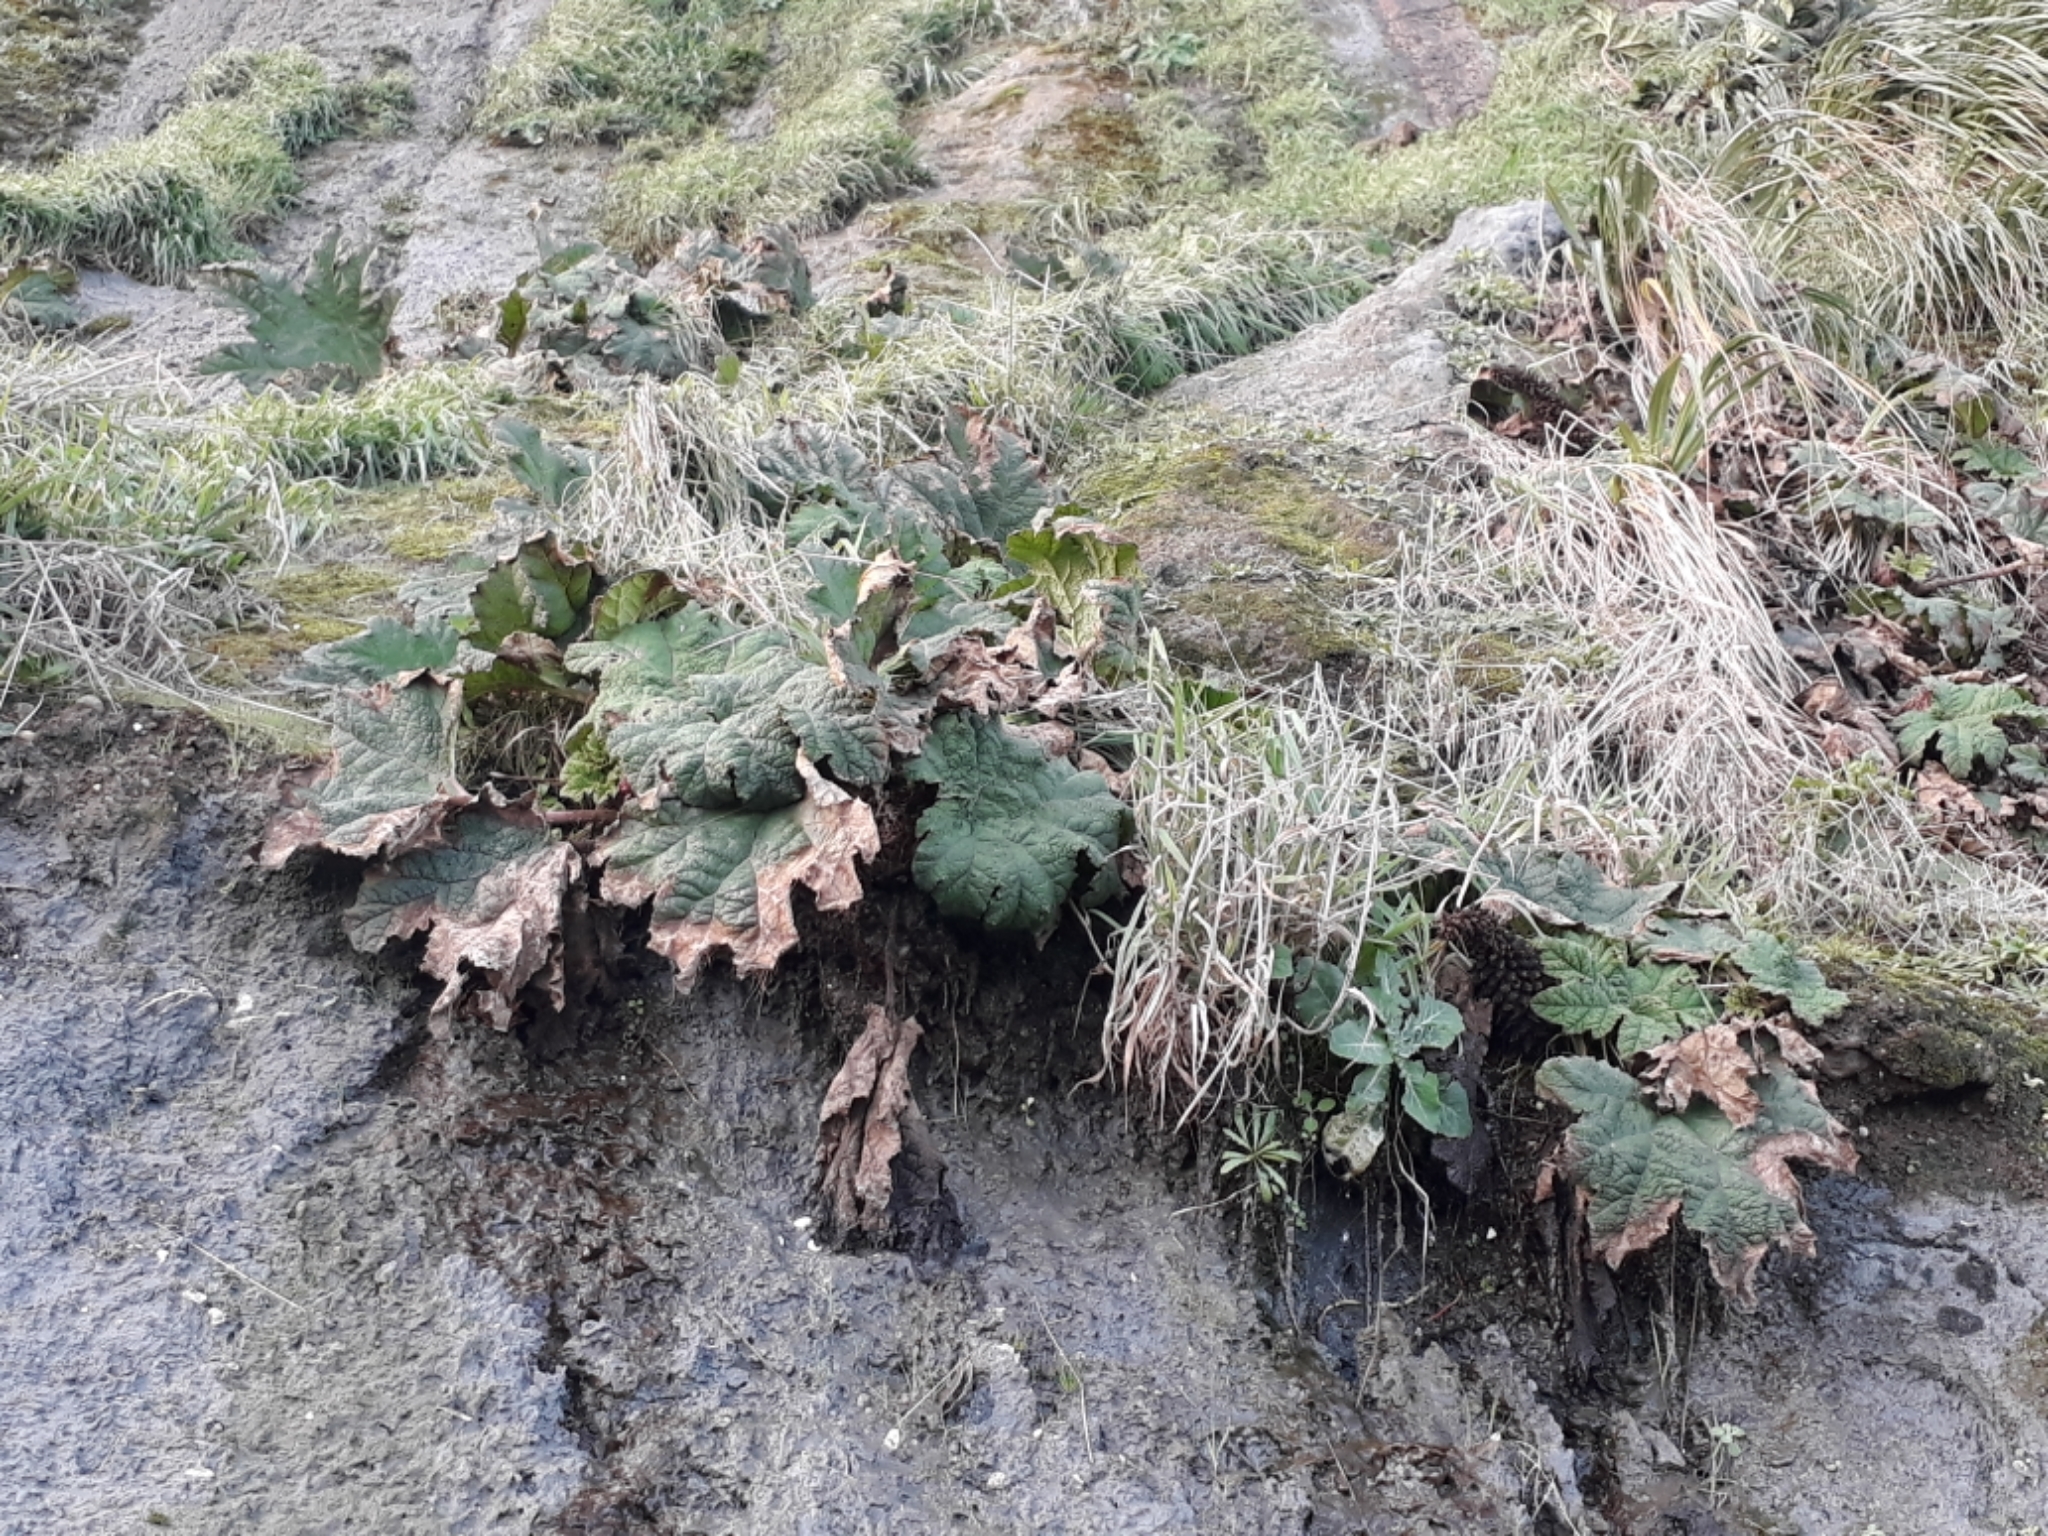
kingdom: Plantae
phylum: Tracheophyta
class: Magnoliopsida
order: Gunnerales
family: Gunneraceae
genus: Gunnera
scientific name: Gunnera tinctoria
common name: Giant-rhubarb
